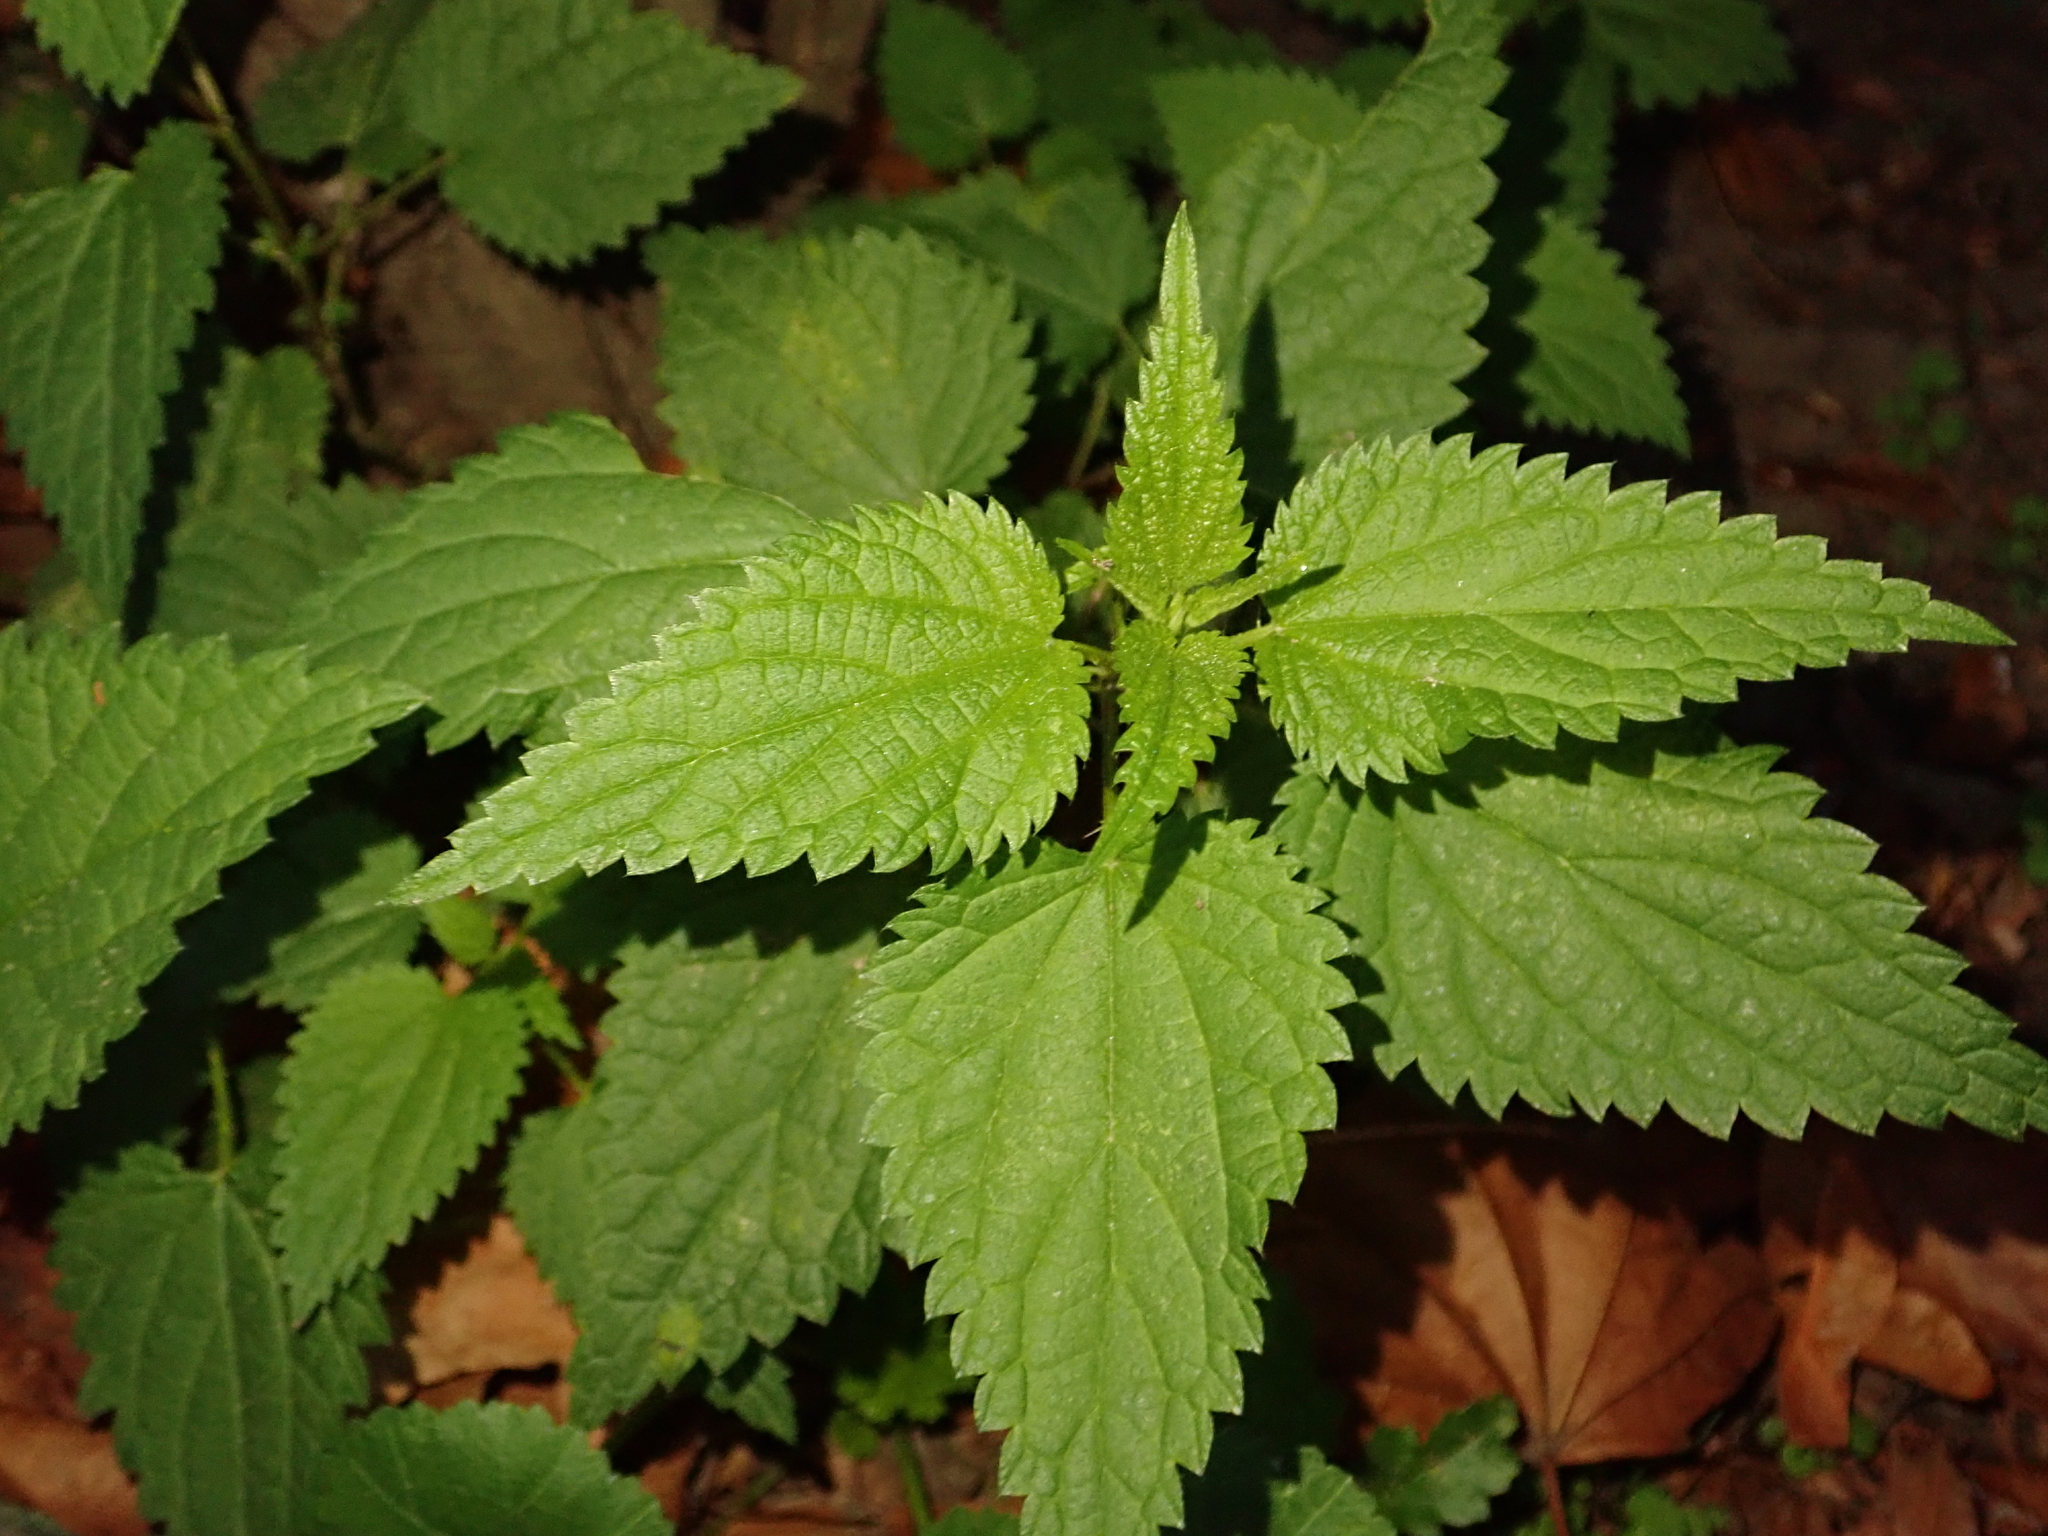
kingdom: Plantae
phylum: Tracheophyta
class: Magnoliopsida
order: Rosales
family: Urticaceae
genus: Urtica
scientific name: Urtica dioica
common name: Common nettle
